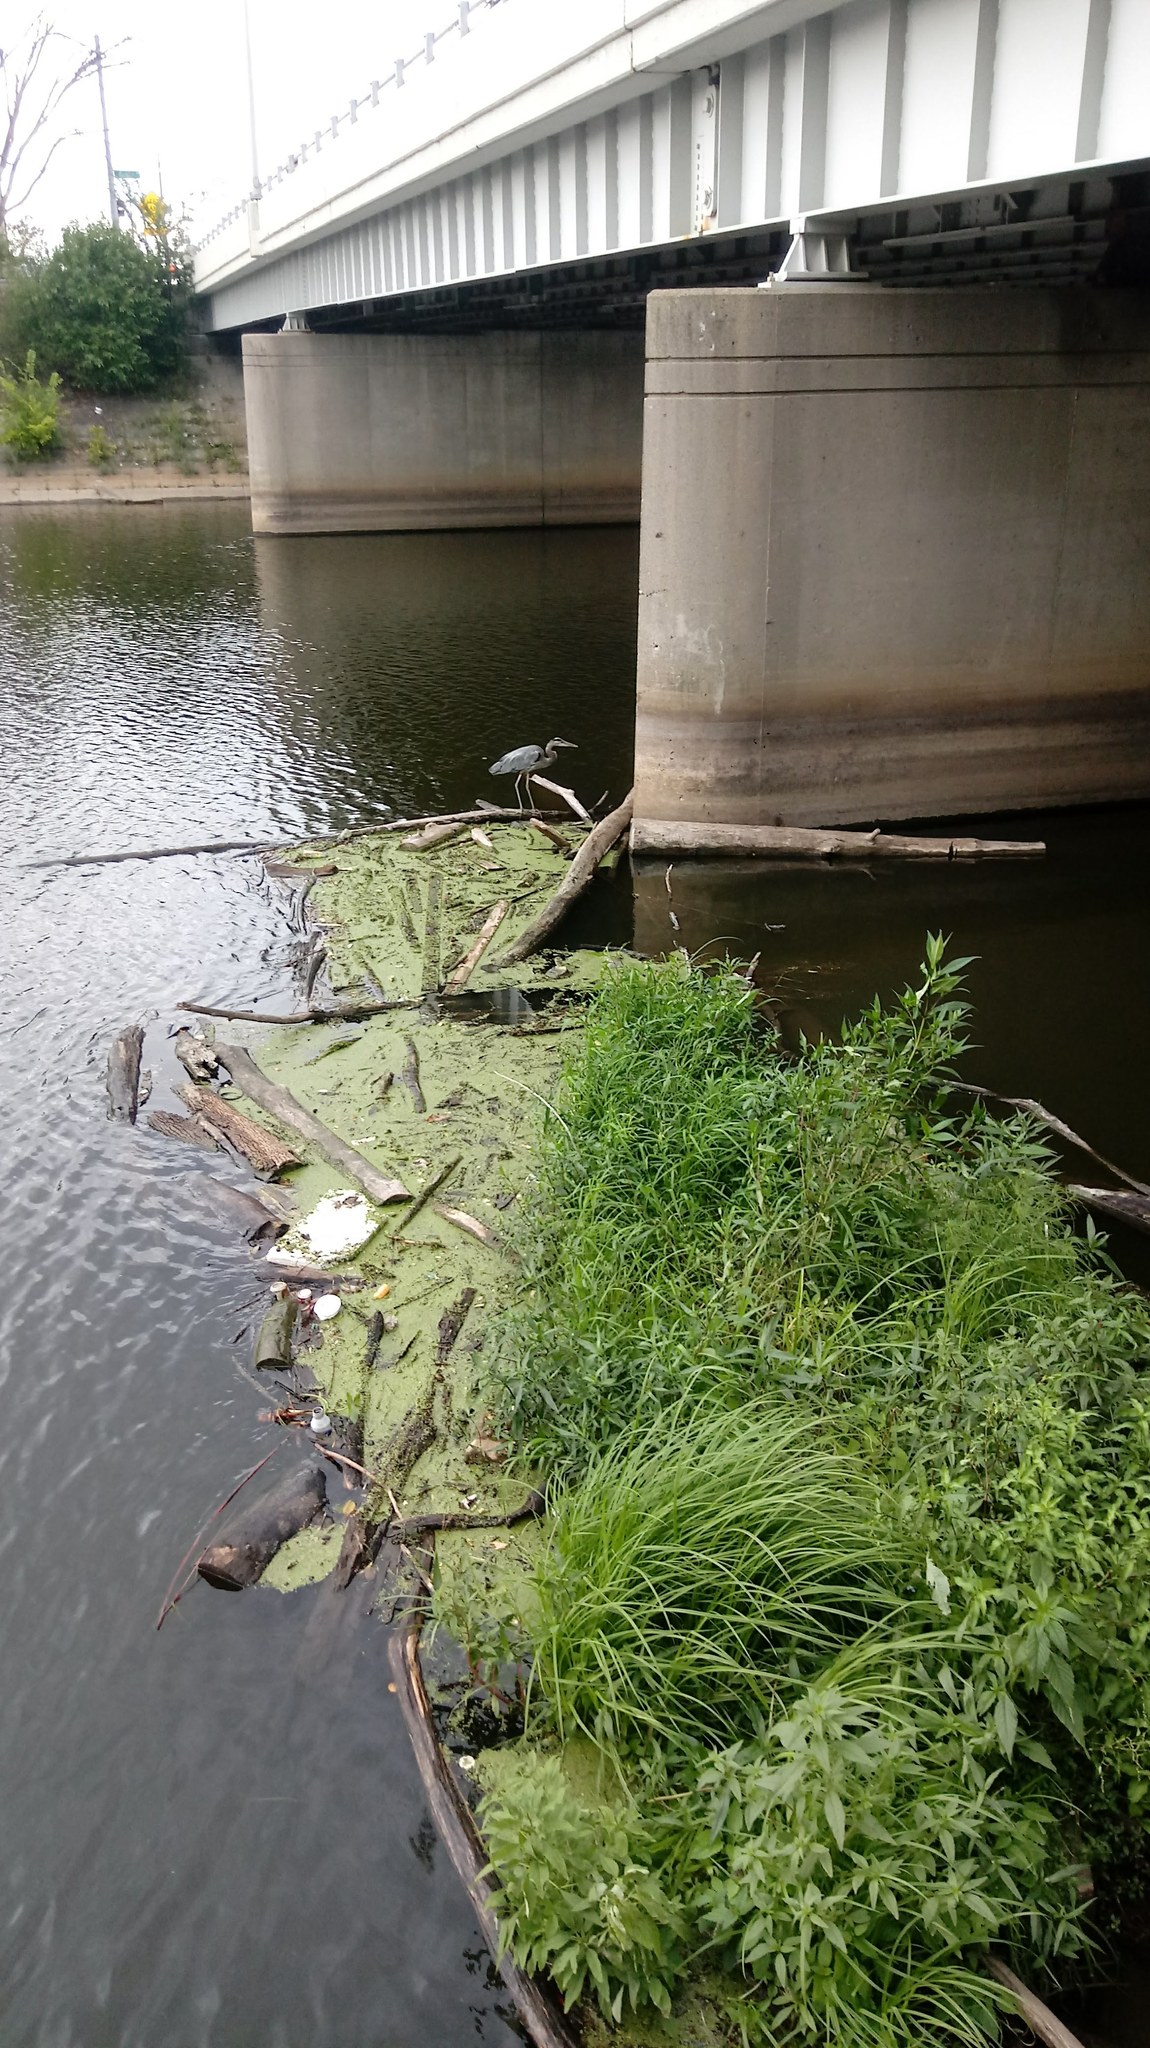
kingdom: Animalia
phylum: Chordata
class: Aves
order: Pelecaniformes
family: Ardeidae
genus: Ardea
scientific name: Ardea herodias
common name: Great blue heron
